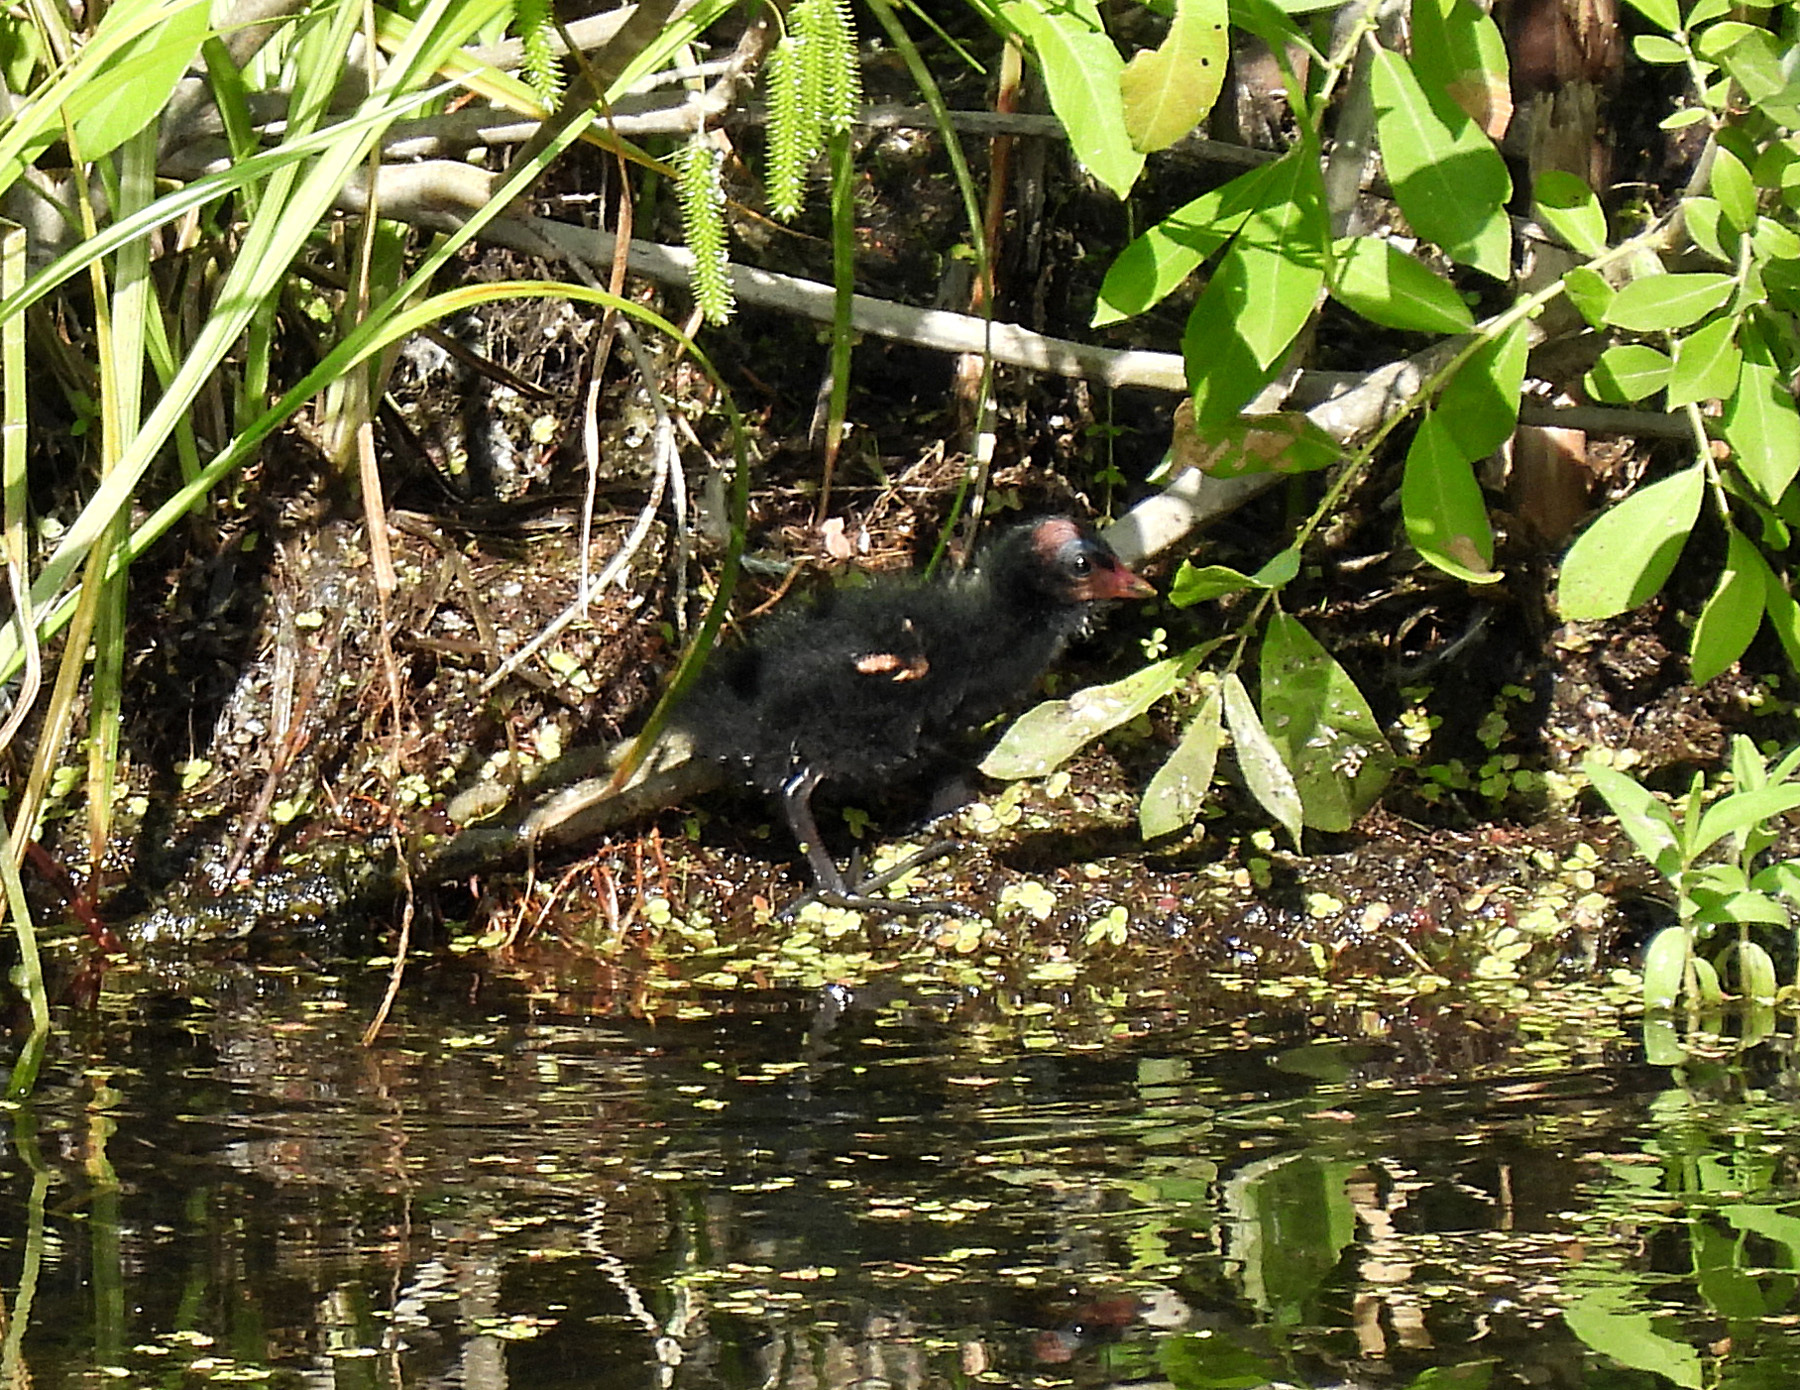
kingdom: Animalia
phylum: Chordata
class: Aves
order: Gruiformes
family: Rallidae
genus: Gallinula
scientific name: Gallinula chloropus
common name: Common moorhen
